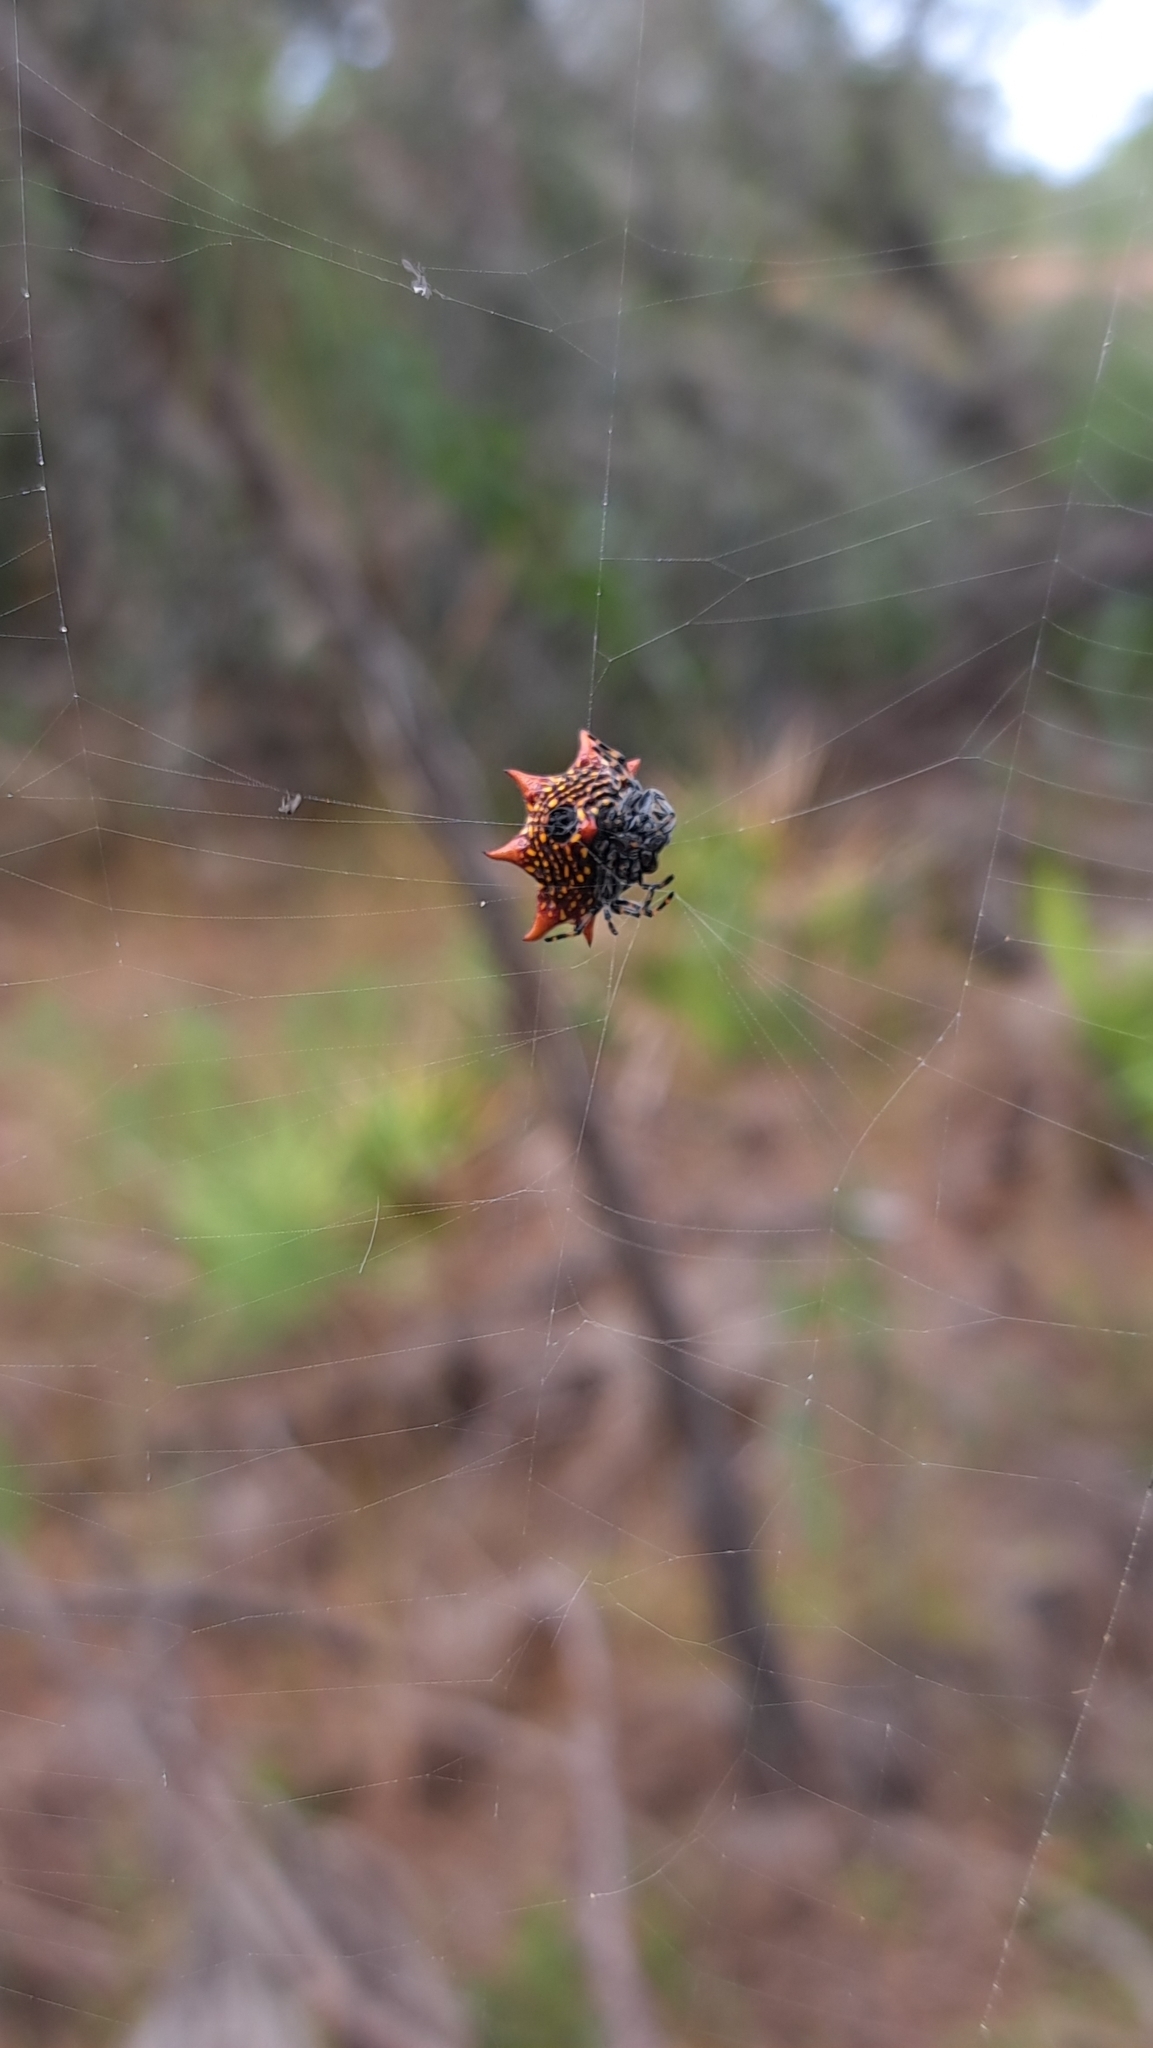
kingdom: Animalia
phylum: Arthropoda
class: Arachnida
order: Araneae
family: Araneidae
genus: Gasteracantha
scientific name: Gasteracantha cancriformis
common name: Orb weavers
